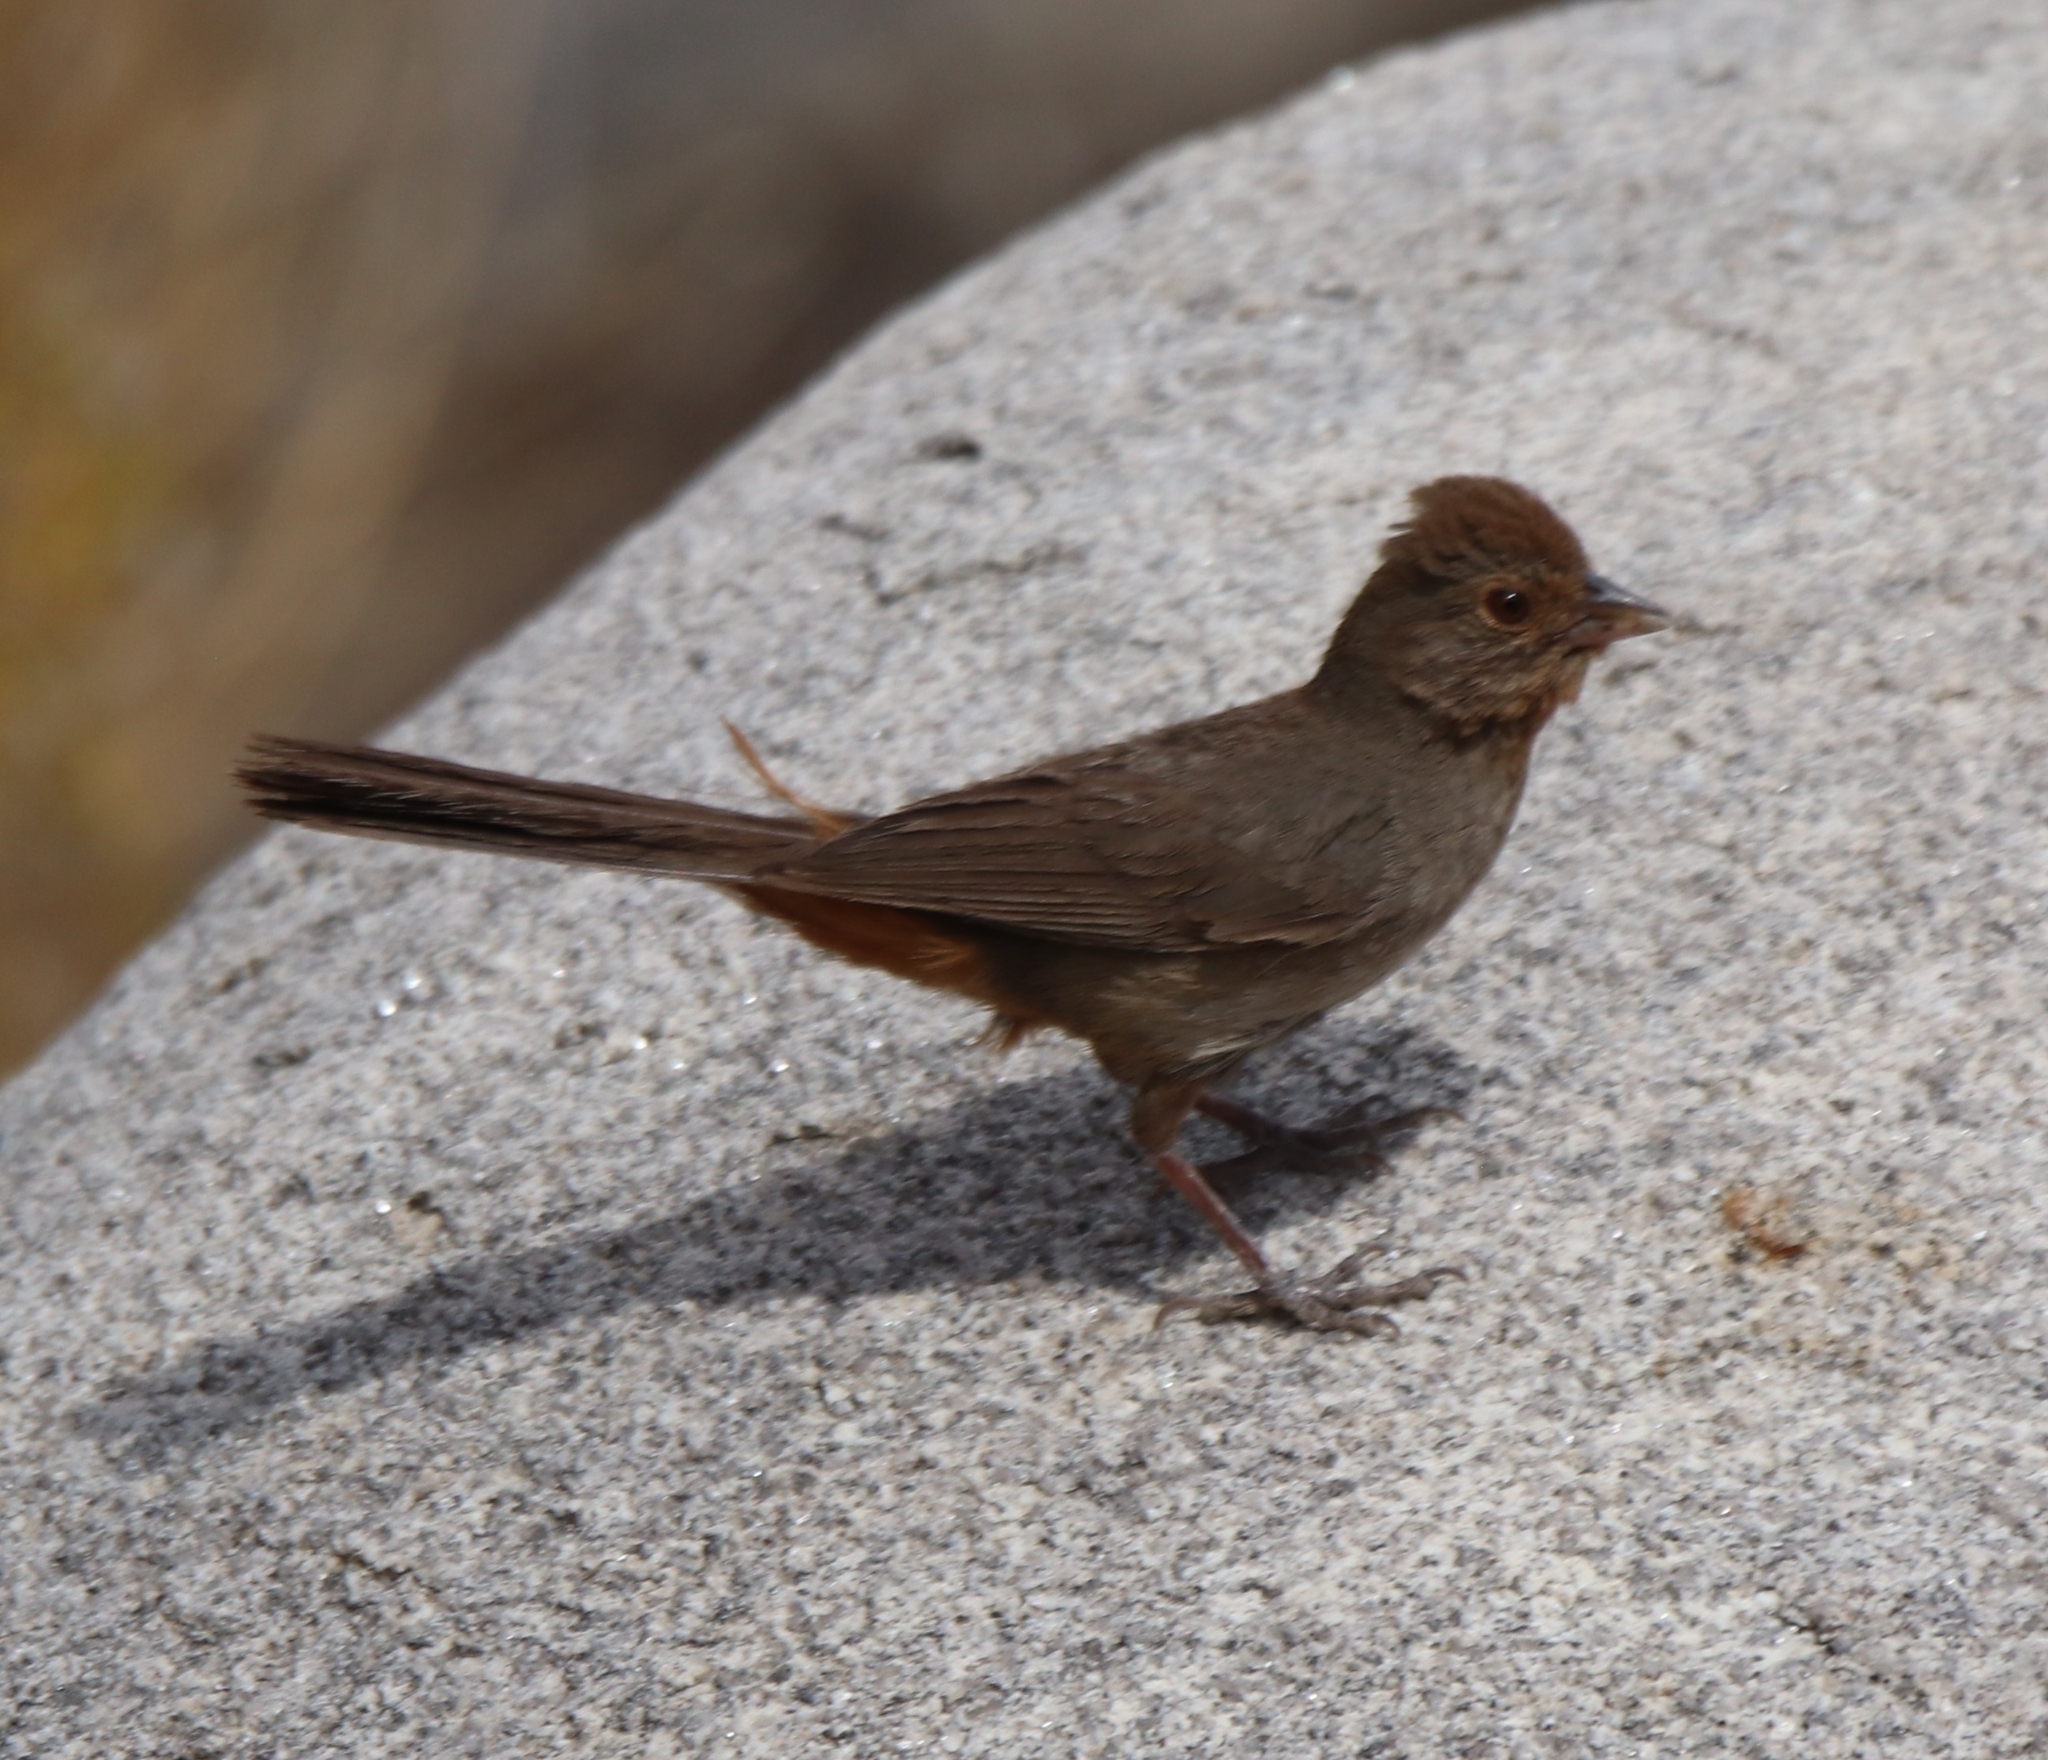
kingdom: Animalia
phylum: Chordata
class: Aves
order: Passeriformes
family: Passerellidae
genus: Melozone
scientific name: Melozone crissalis
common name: California towhee
